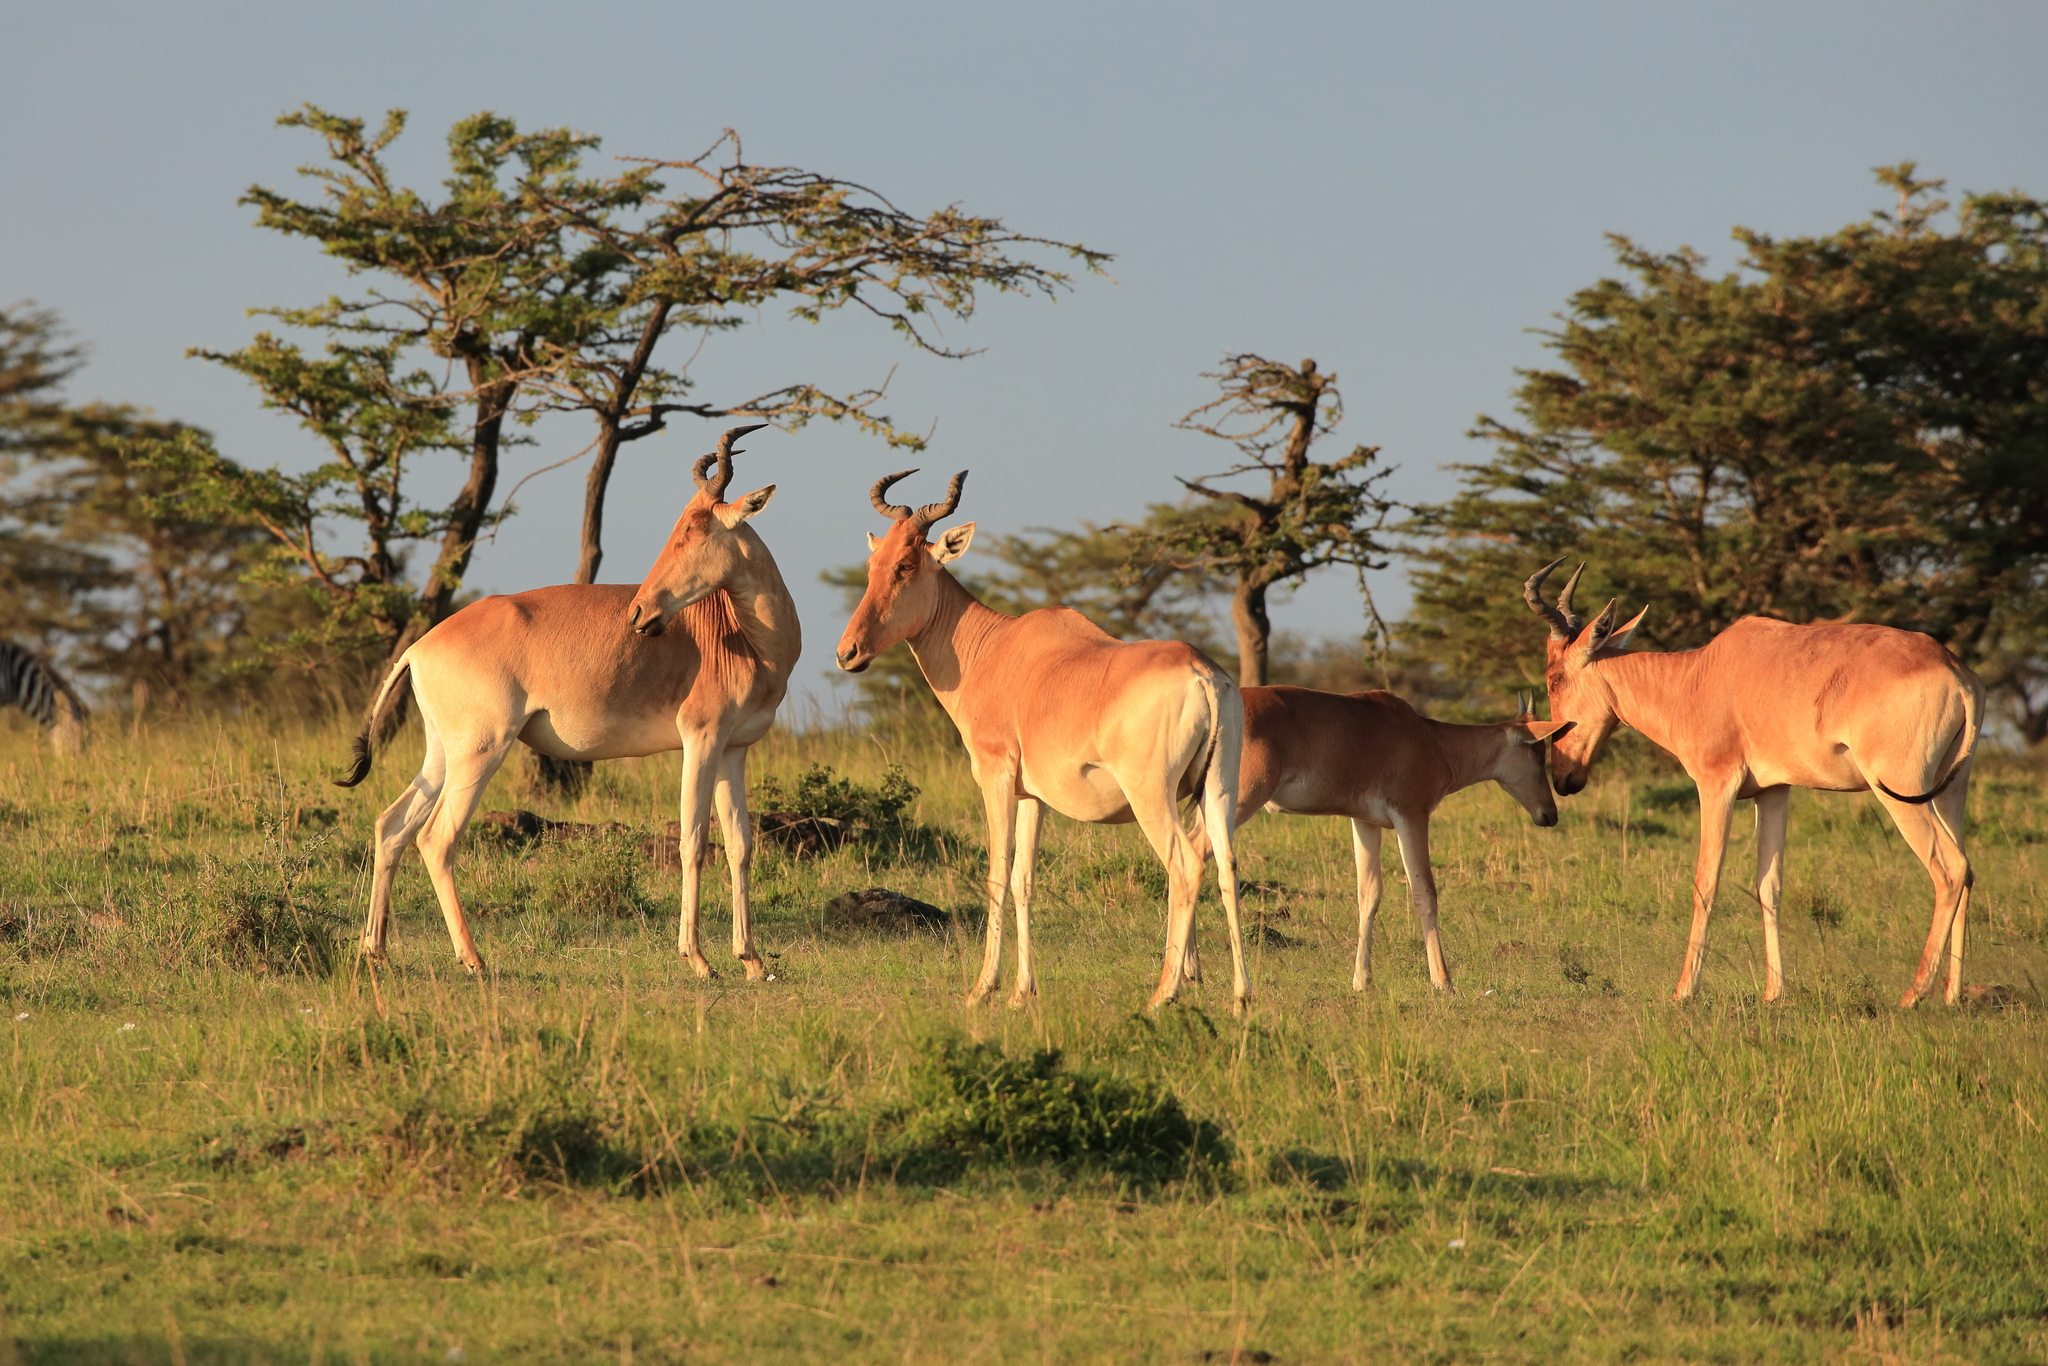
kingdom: Animalia
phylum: Chordata
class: Mammalia
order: Artiodactyla
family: Bovidae
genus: Alcelaphus
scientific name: Alcelaphus buselaphus
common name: Hartebeest
